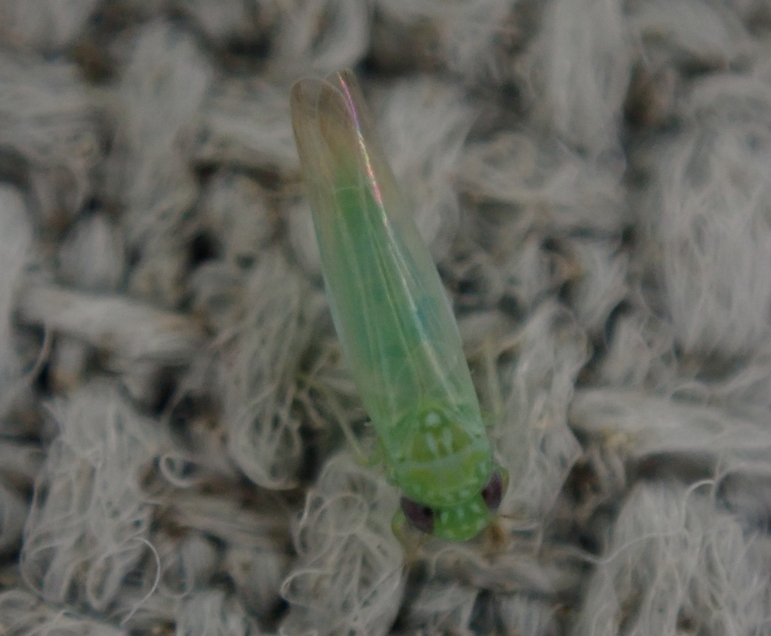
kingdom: Animalia
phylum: Arthropoda
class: Insecta
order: Hemiptera
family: Cicadellidae
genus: Empoasca
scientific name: Empoasca fabae
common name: Potato leafhopper
